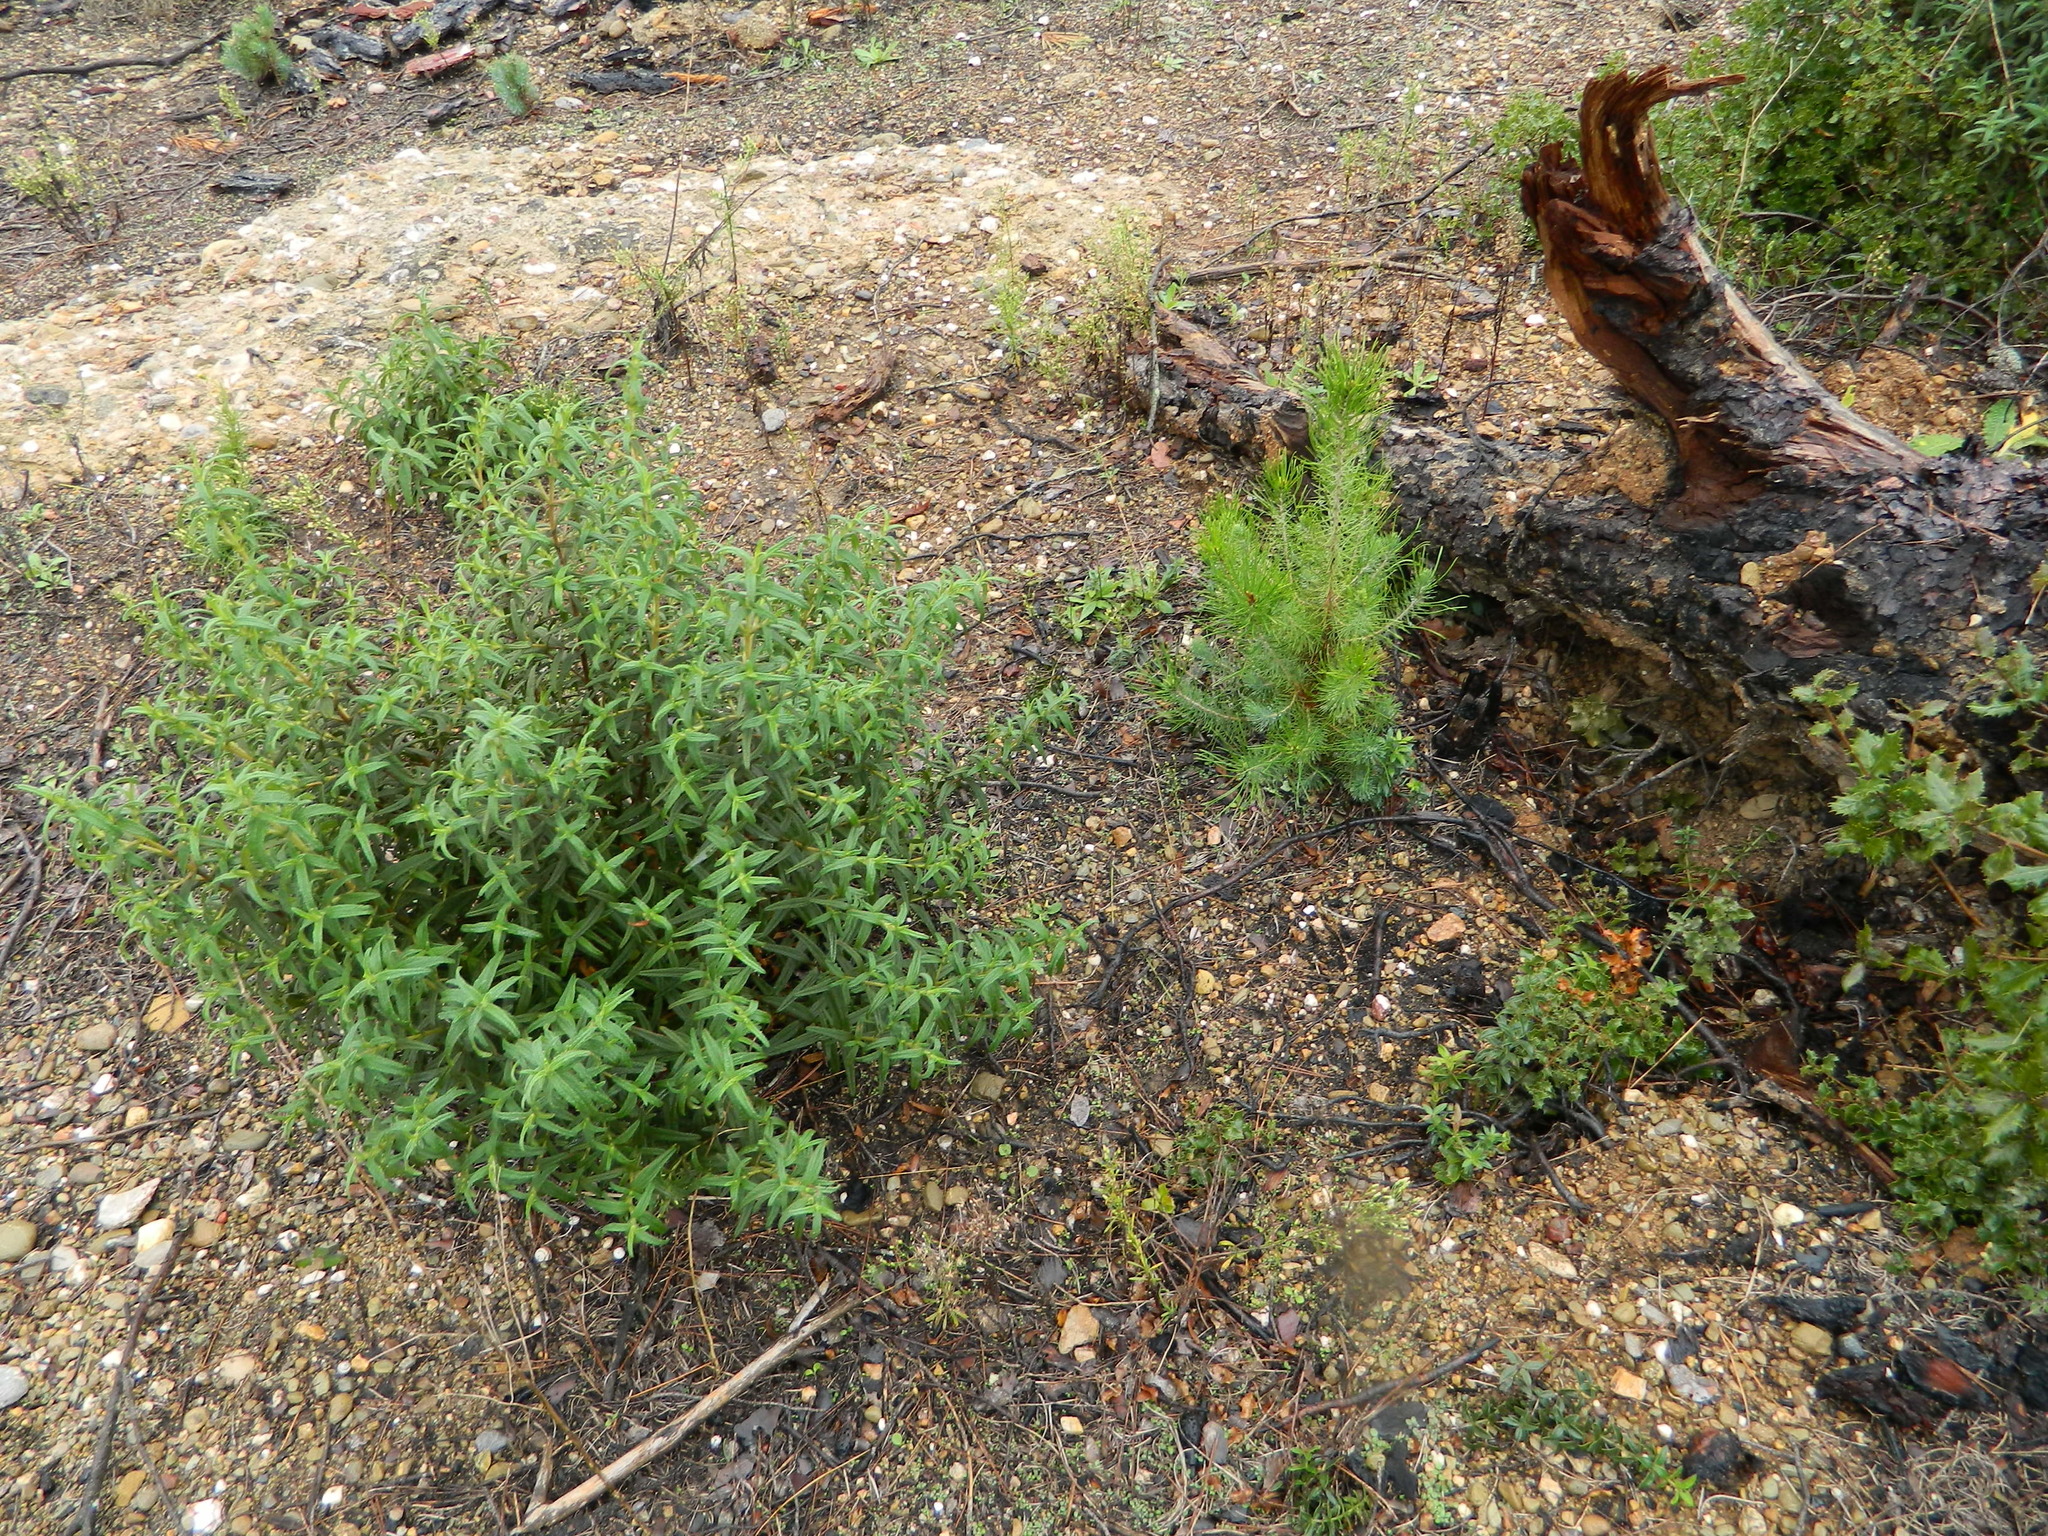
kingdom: Plantae
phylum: Tracheophyta
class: Magnoliopsida
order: Malvales
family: Cistaceae
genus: Cistus
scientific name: Cistus monspeliensis
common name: Montpelier cistus
